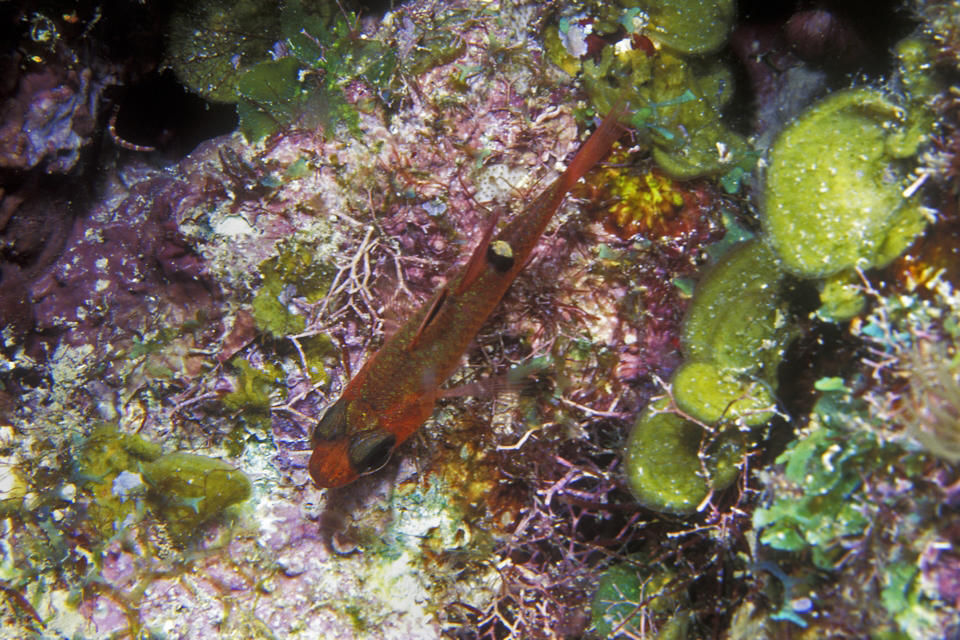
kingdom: Animalia
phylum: Chordata
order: Perciformes
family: Apogonidae
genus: Apogon
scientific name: Apogon lachneri
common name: Whitestar cardinalfish
